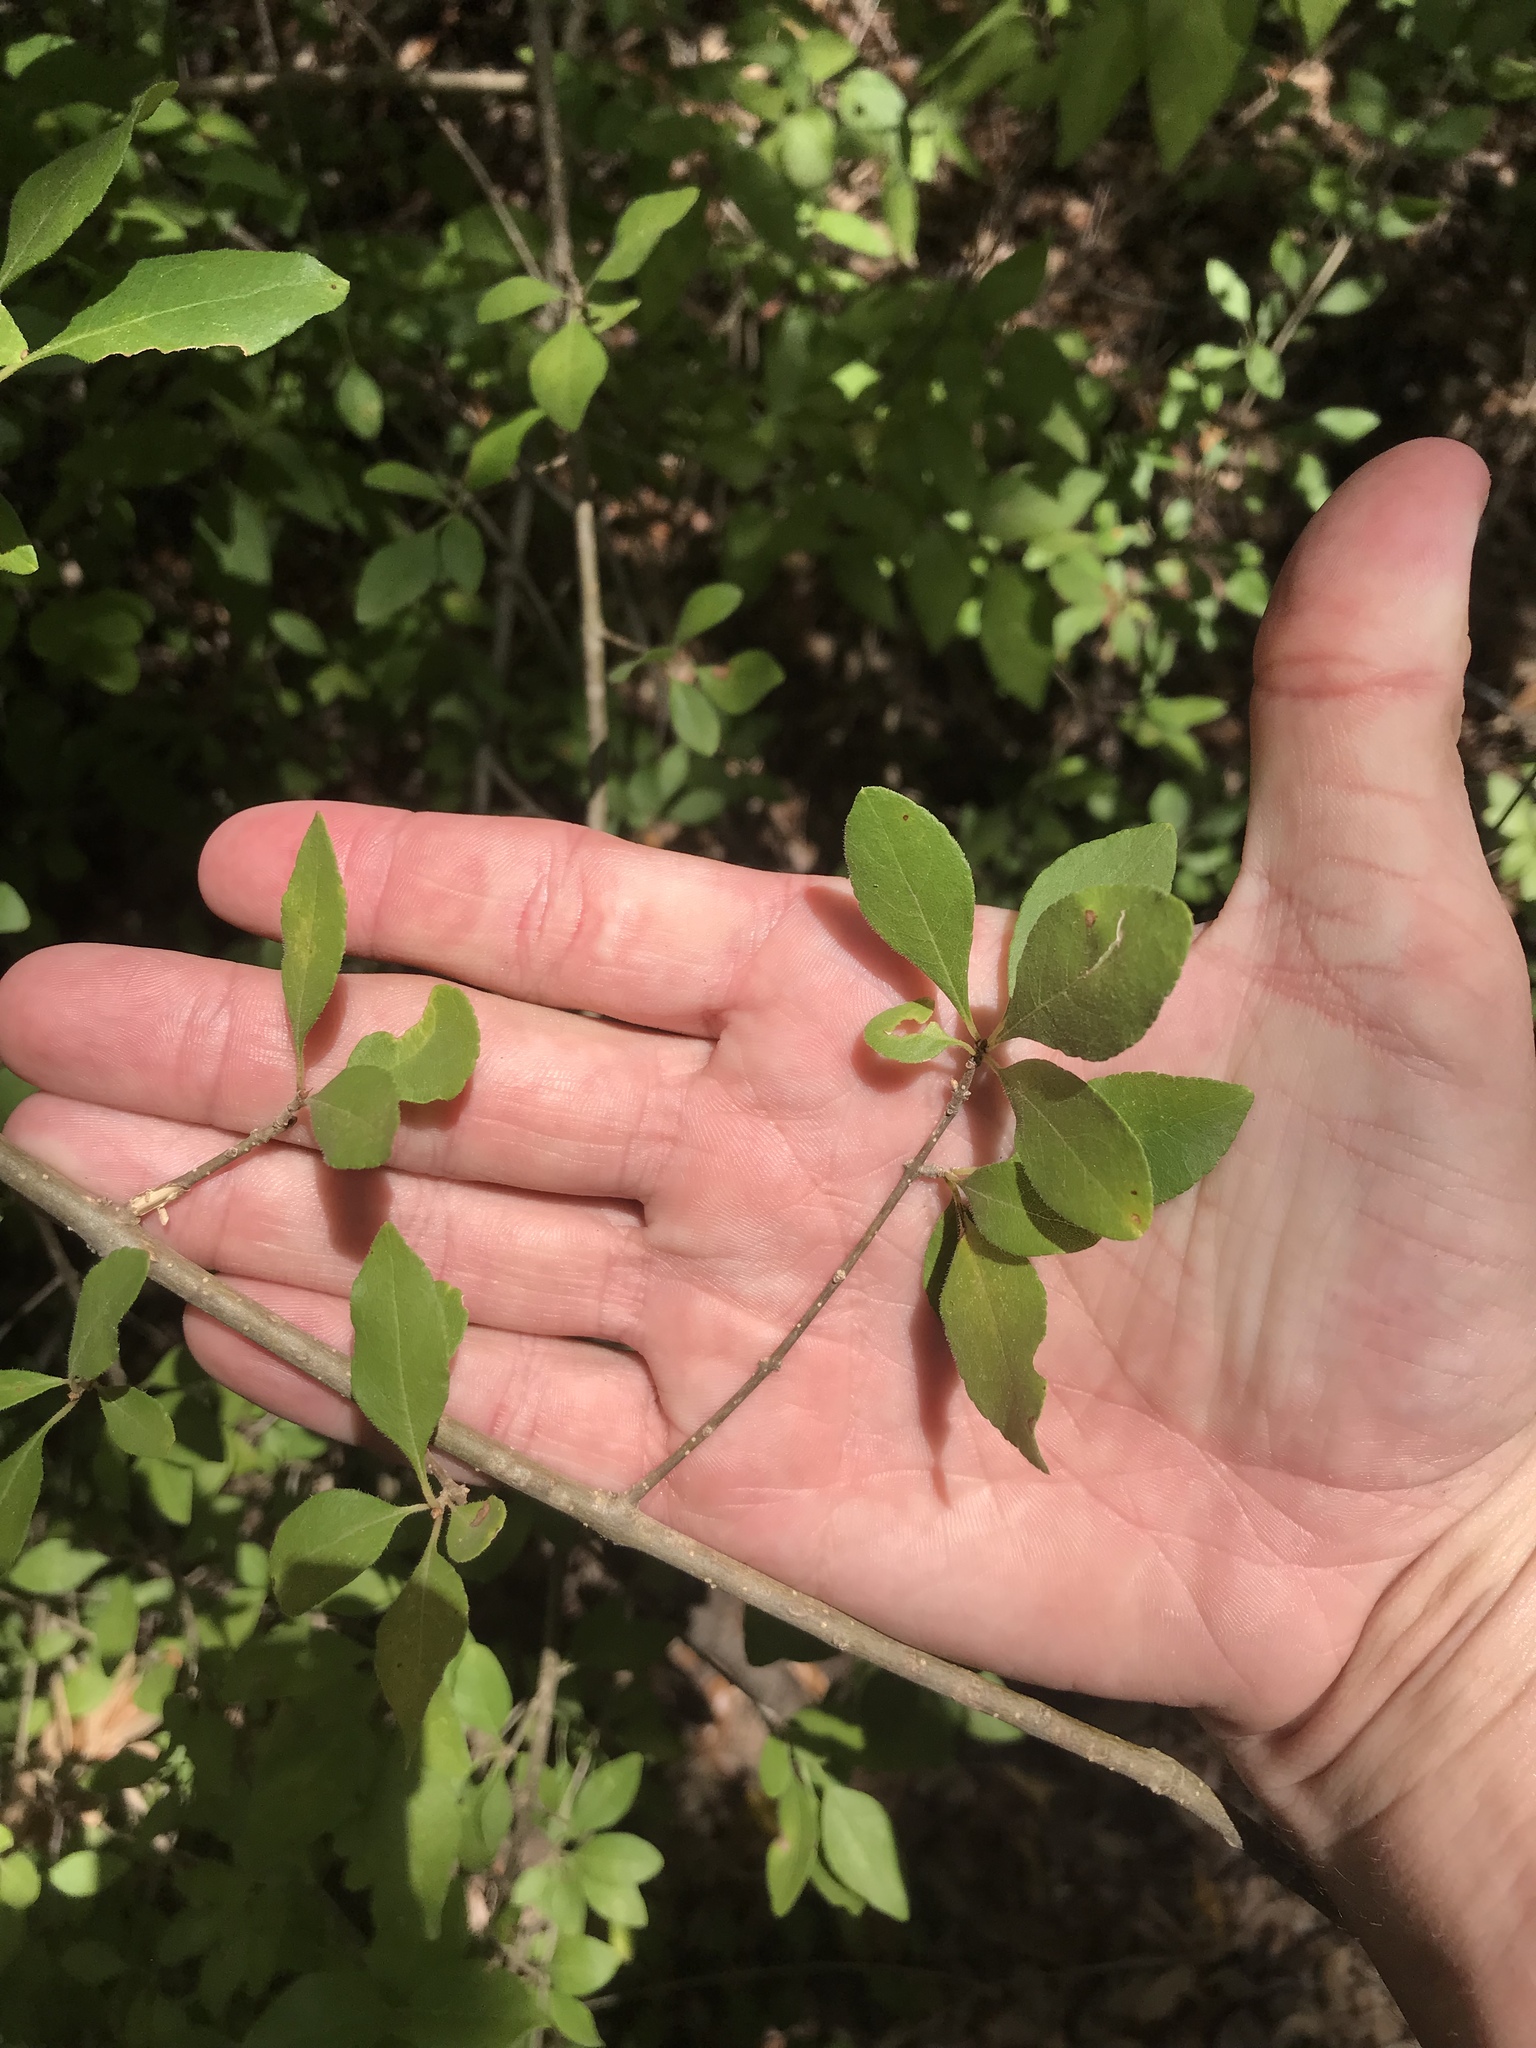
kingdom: Plantae
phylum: Tracheophyta
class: Magnoliopsida
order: Lamiales
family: Oleaceae
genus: Forestiera
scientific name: Forestiera pubescens
